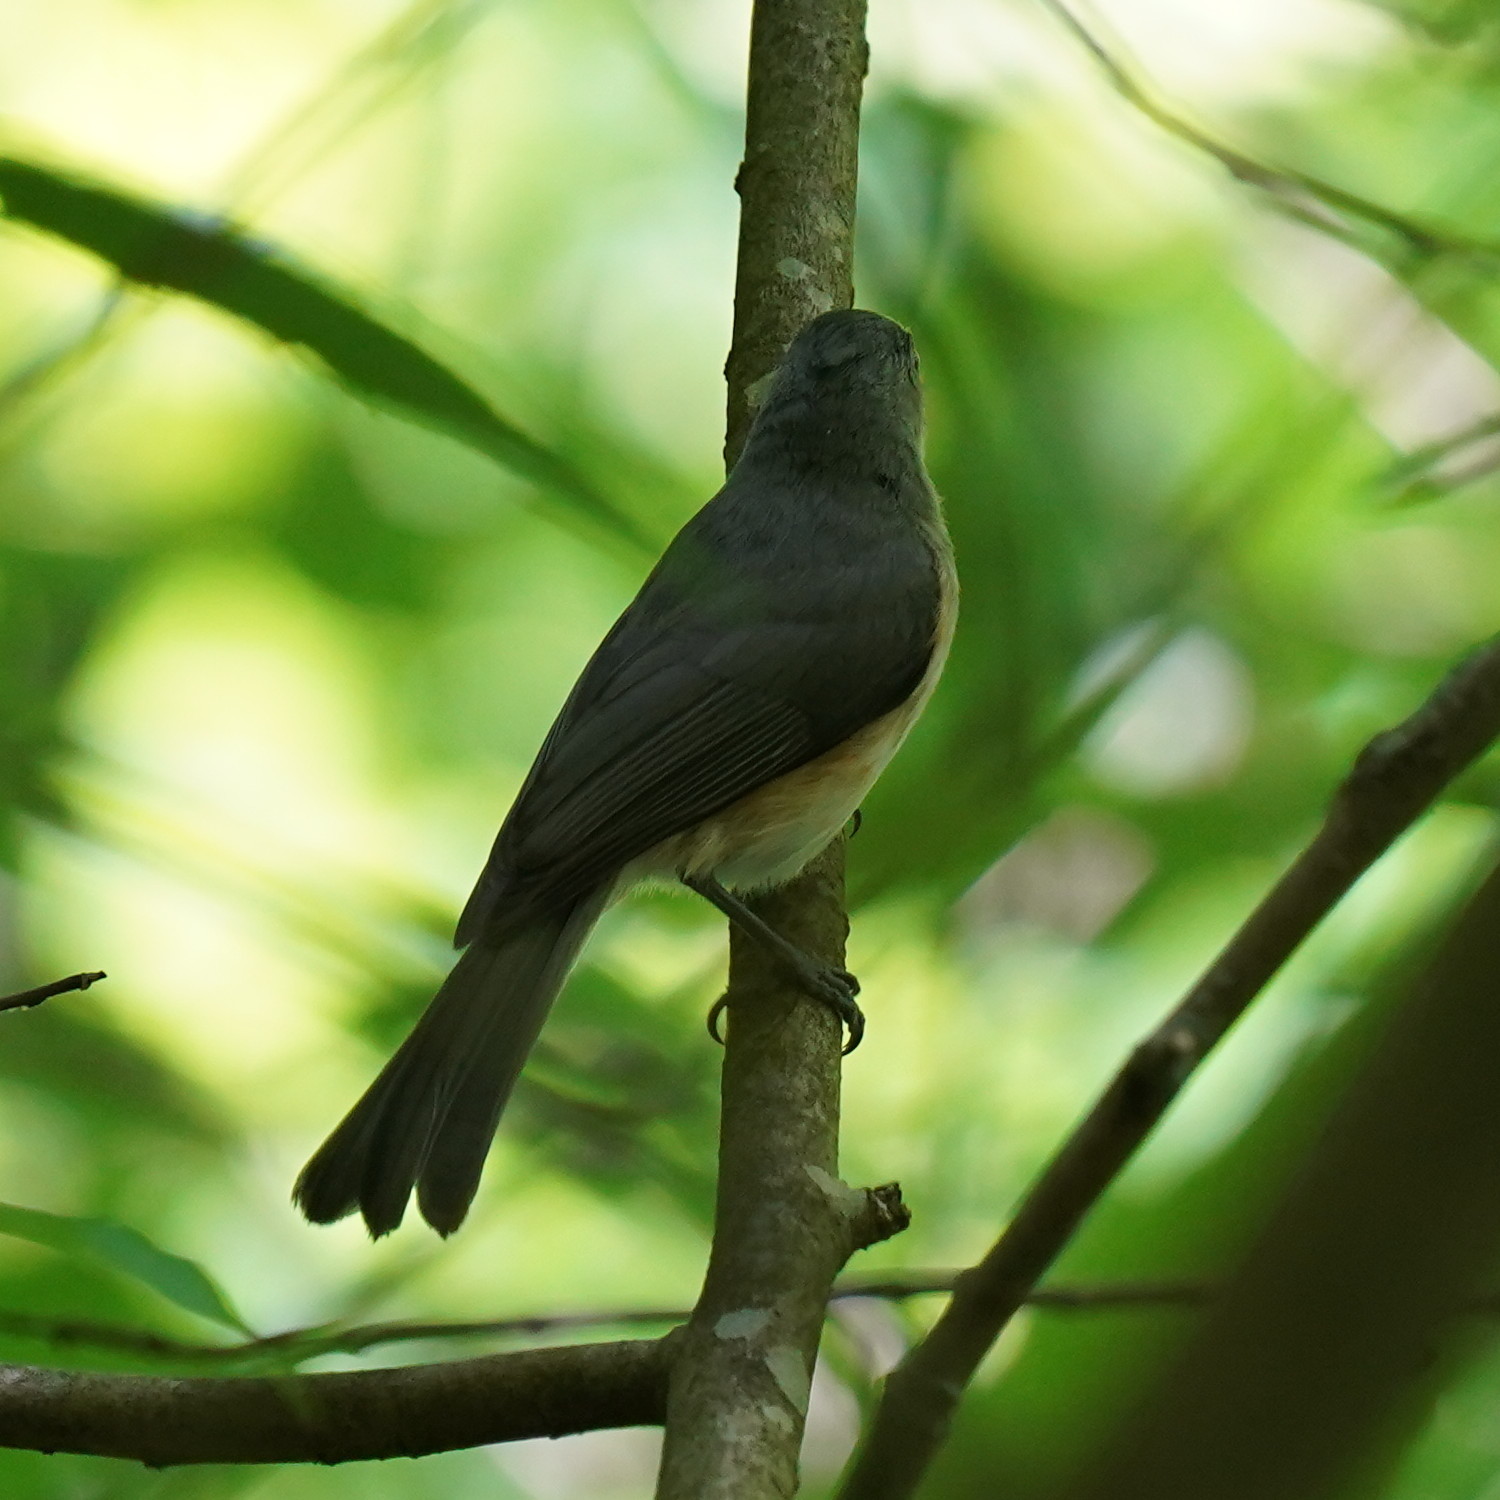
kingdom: Animalia
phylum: Chordata
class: Aves
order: Passeriformes
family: Paridae
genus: Baeolophus
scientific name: Baeolophus bicolor
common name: Tufted titmouse
